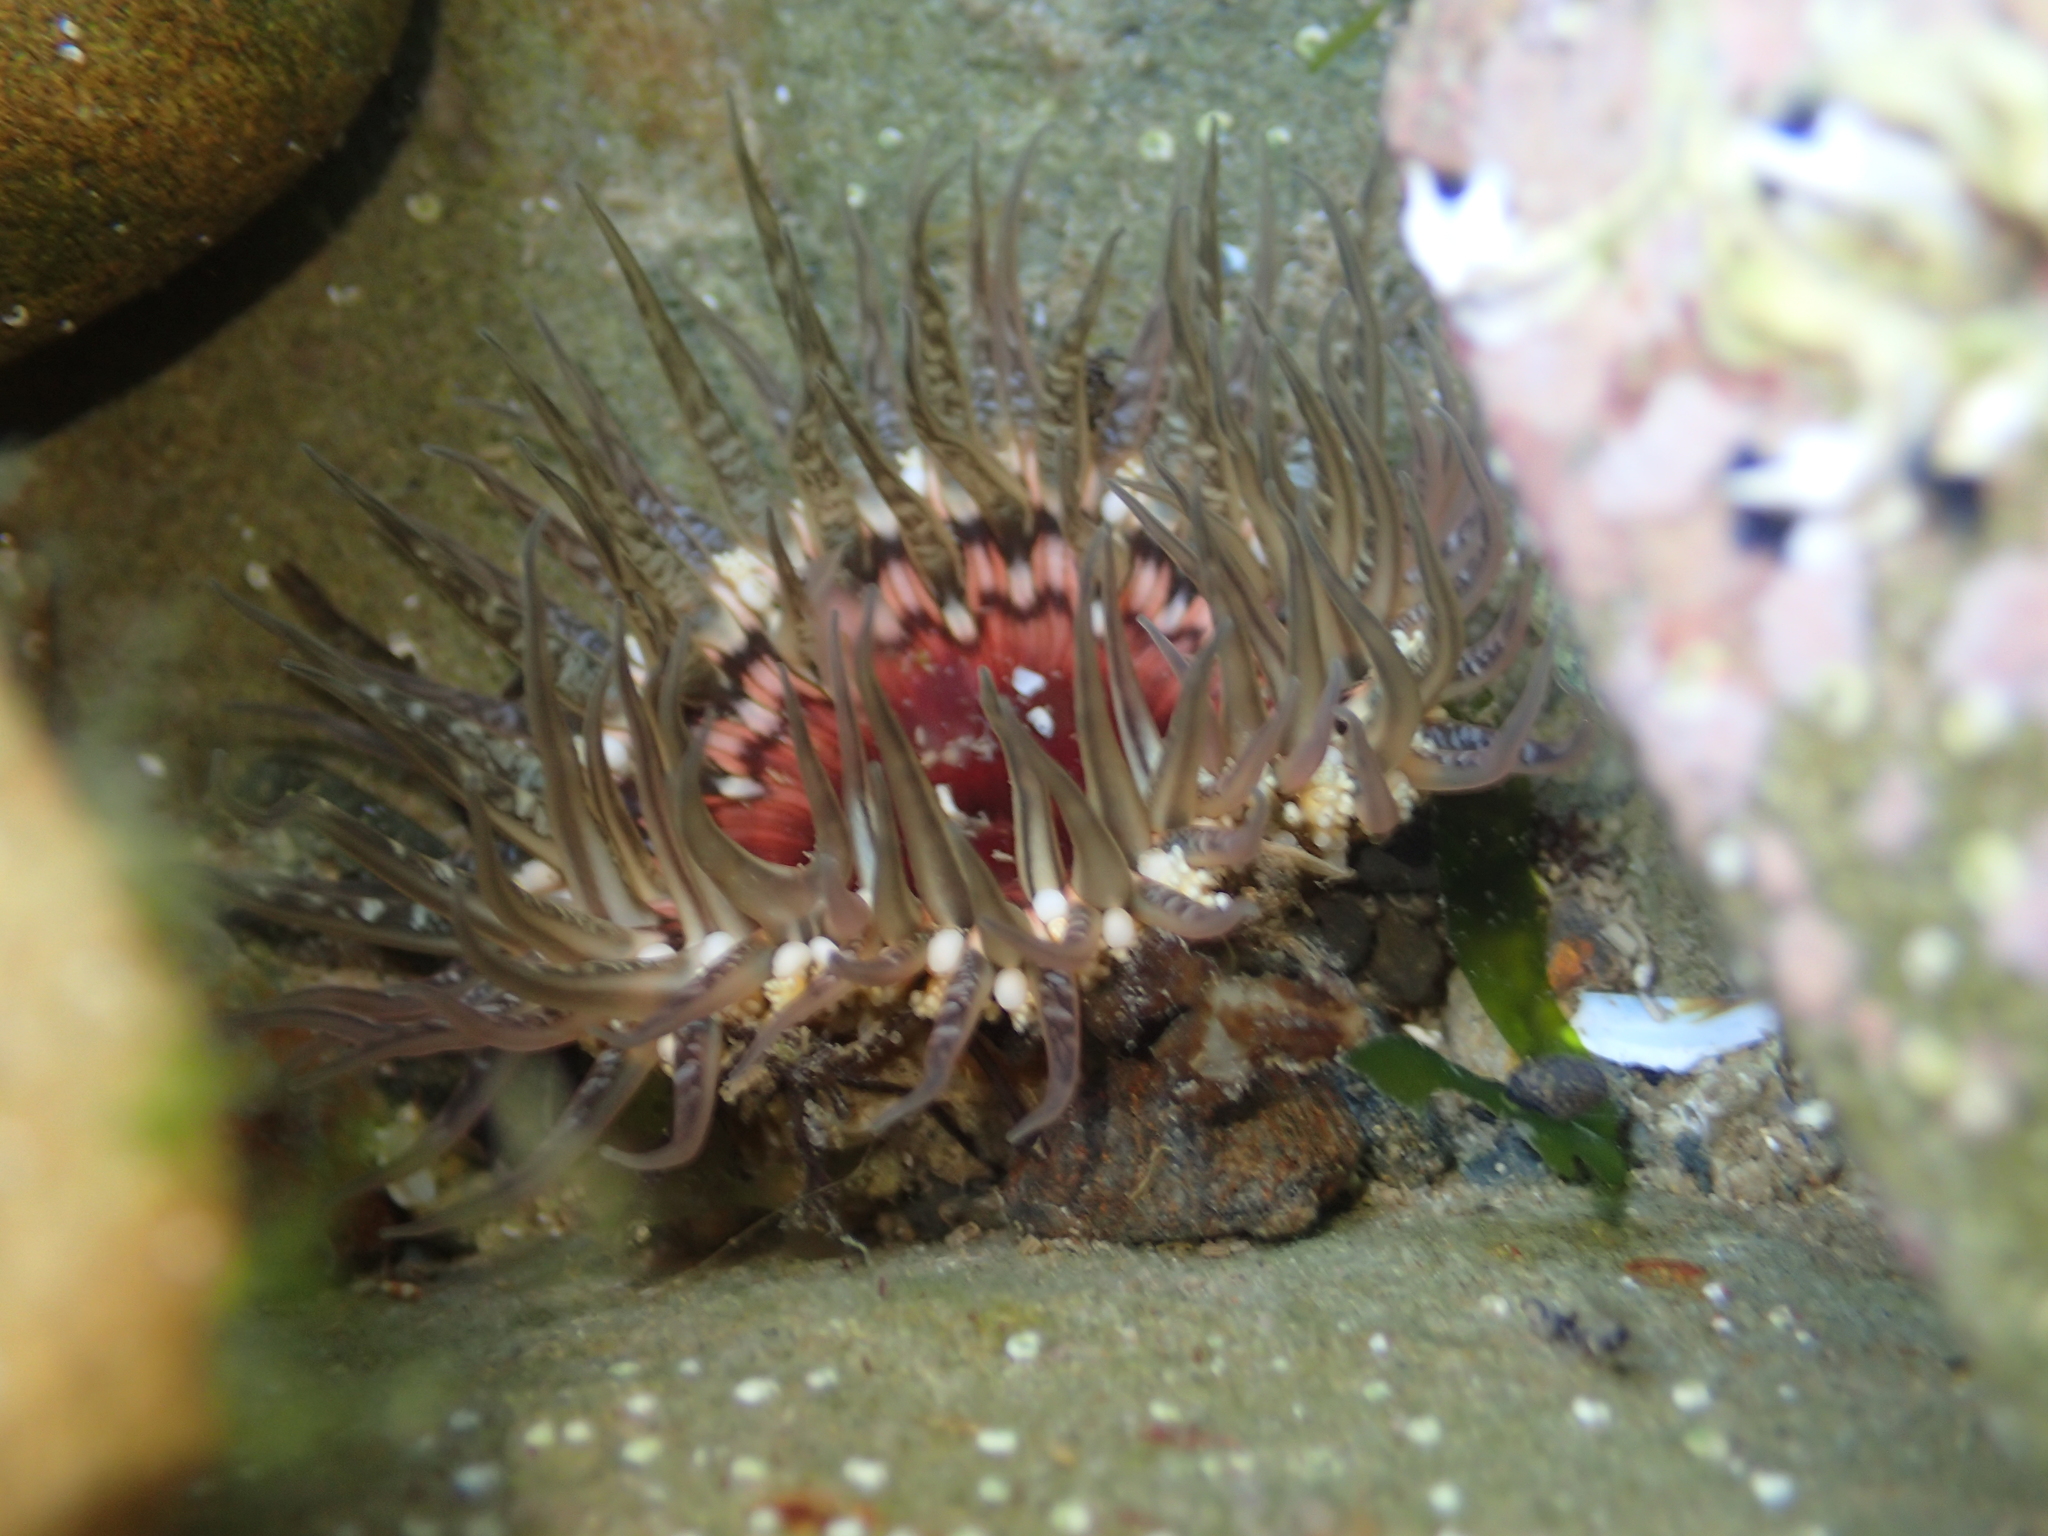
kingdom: Animalia
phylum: Cnidaria
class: Anthozoa
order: Actiniaria
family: Actiniidae
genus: Oulactis
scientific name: Oulactis muscosa
